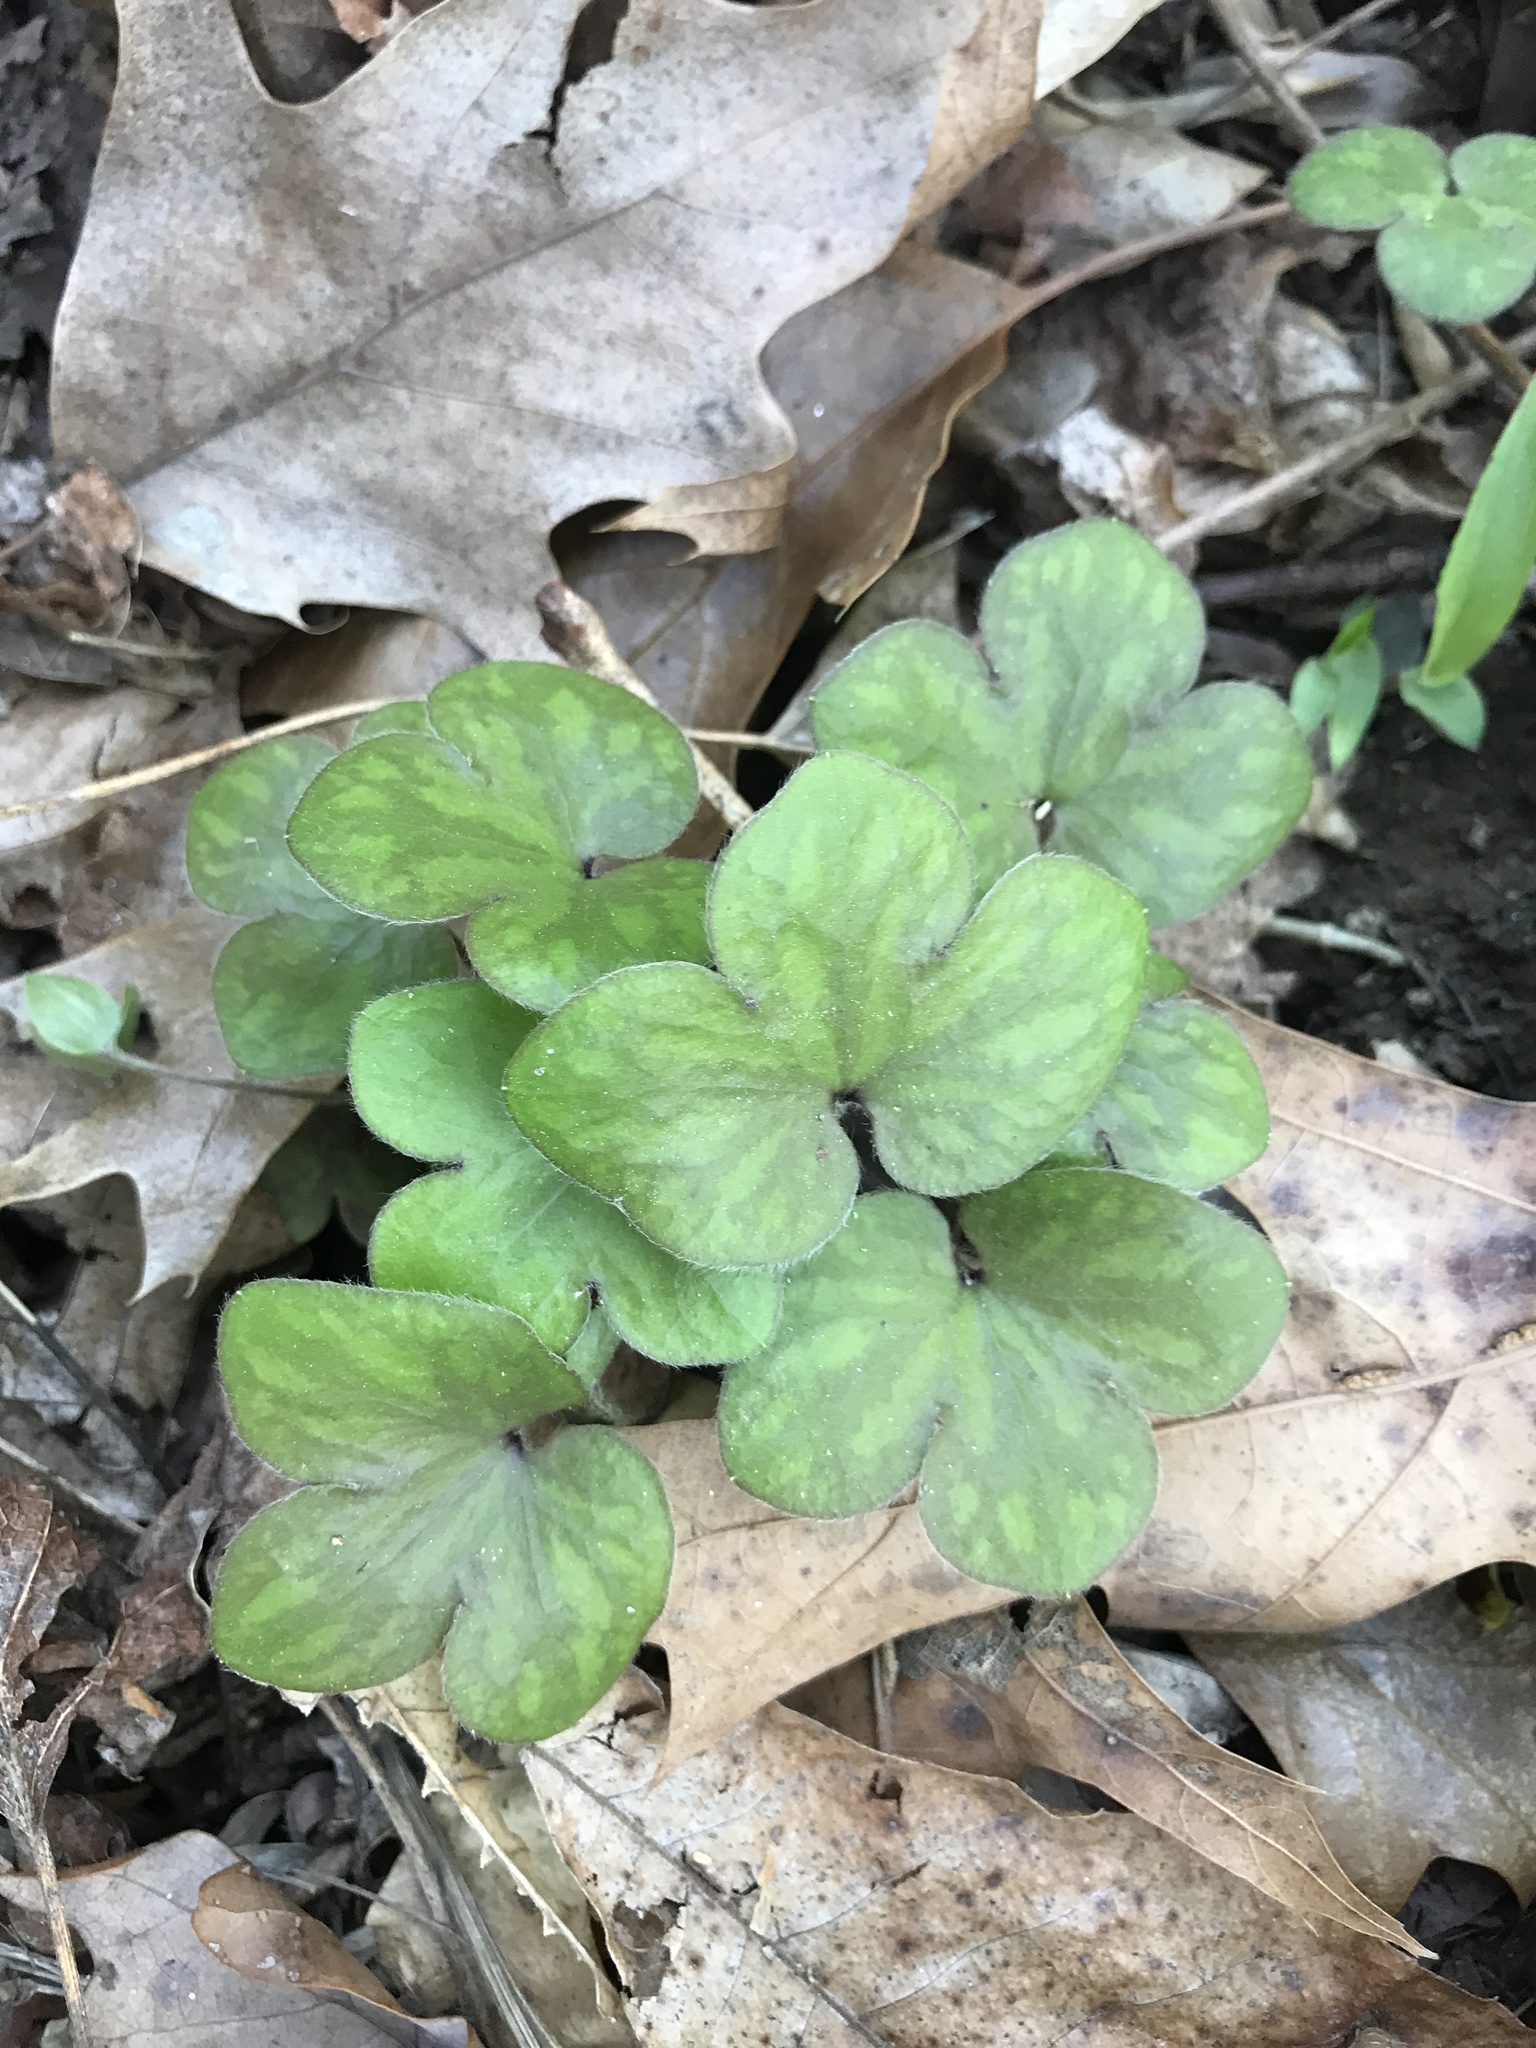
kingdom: Plantae
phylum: Tracheophyta
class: Magnoliopsida
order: Ranunculales
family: Ranunculaceae
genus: Hepatica
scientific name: Hepatica americana
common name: American hepatica
